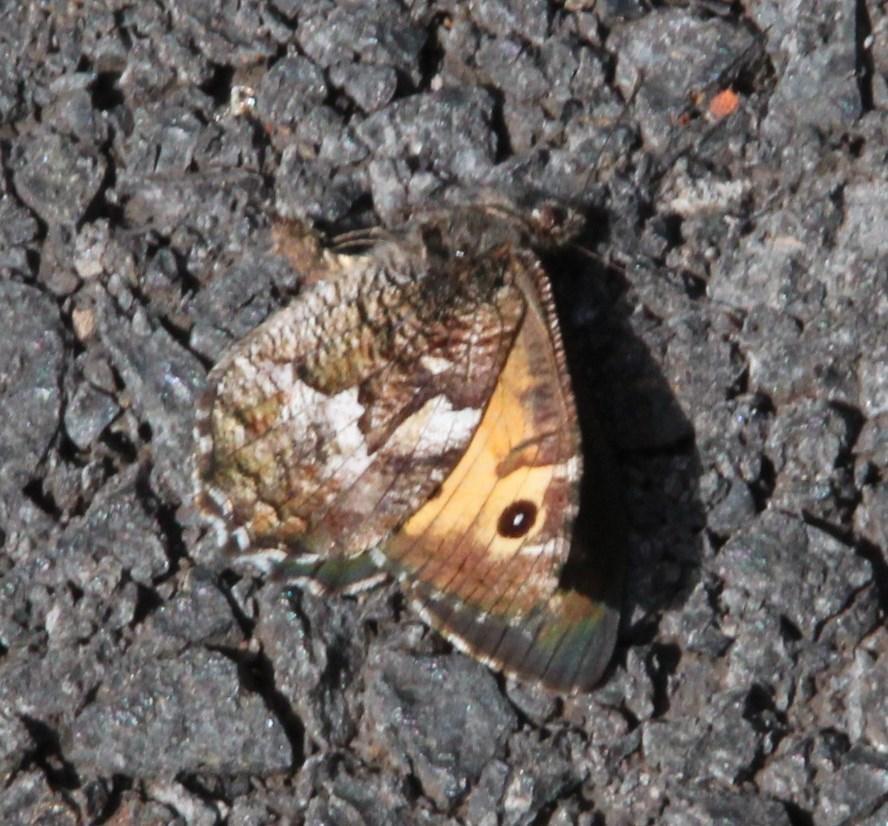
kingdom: Animalia
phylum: Arthropoda
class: Insecta
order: Lepidoptera
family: Nymphalidae
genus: Hipparchia
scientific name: Hipparchia algirica
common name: Mountain grayling
